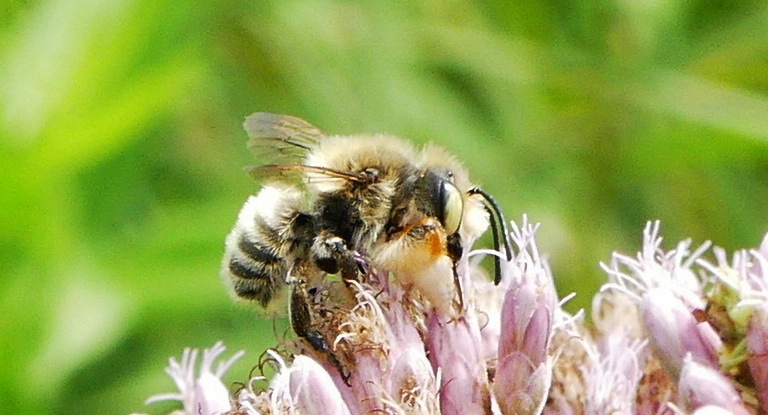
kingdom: Animalia
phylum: Arthropoda
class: Insecta
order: Hymenoptera
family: Megachilidae
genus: Megachile
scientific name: Megachile latimanus
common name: Leafcutting bee
